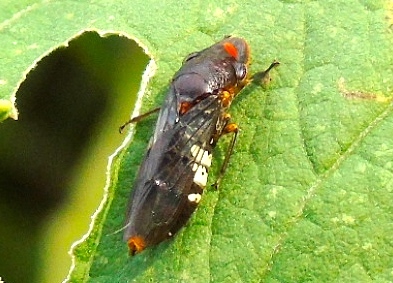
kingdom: Animalia
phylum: Arthropoda
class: Insecta
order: Hemiptera
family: Cicadellidae
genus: Homalodisca
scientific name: Homalodisca ichthyocephala
